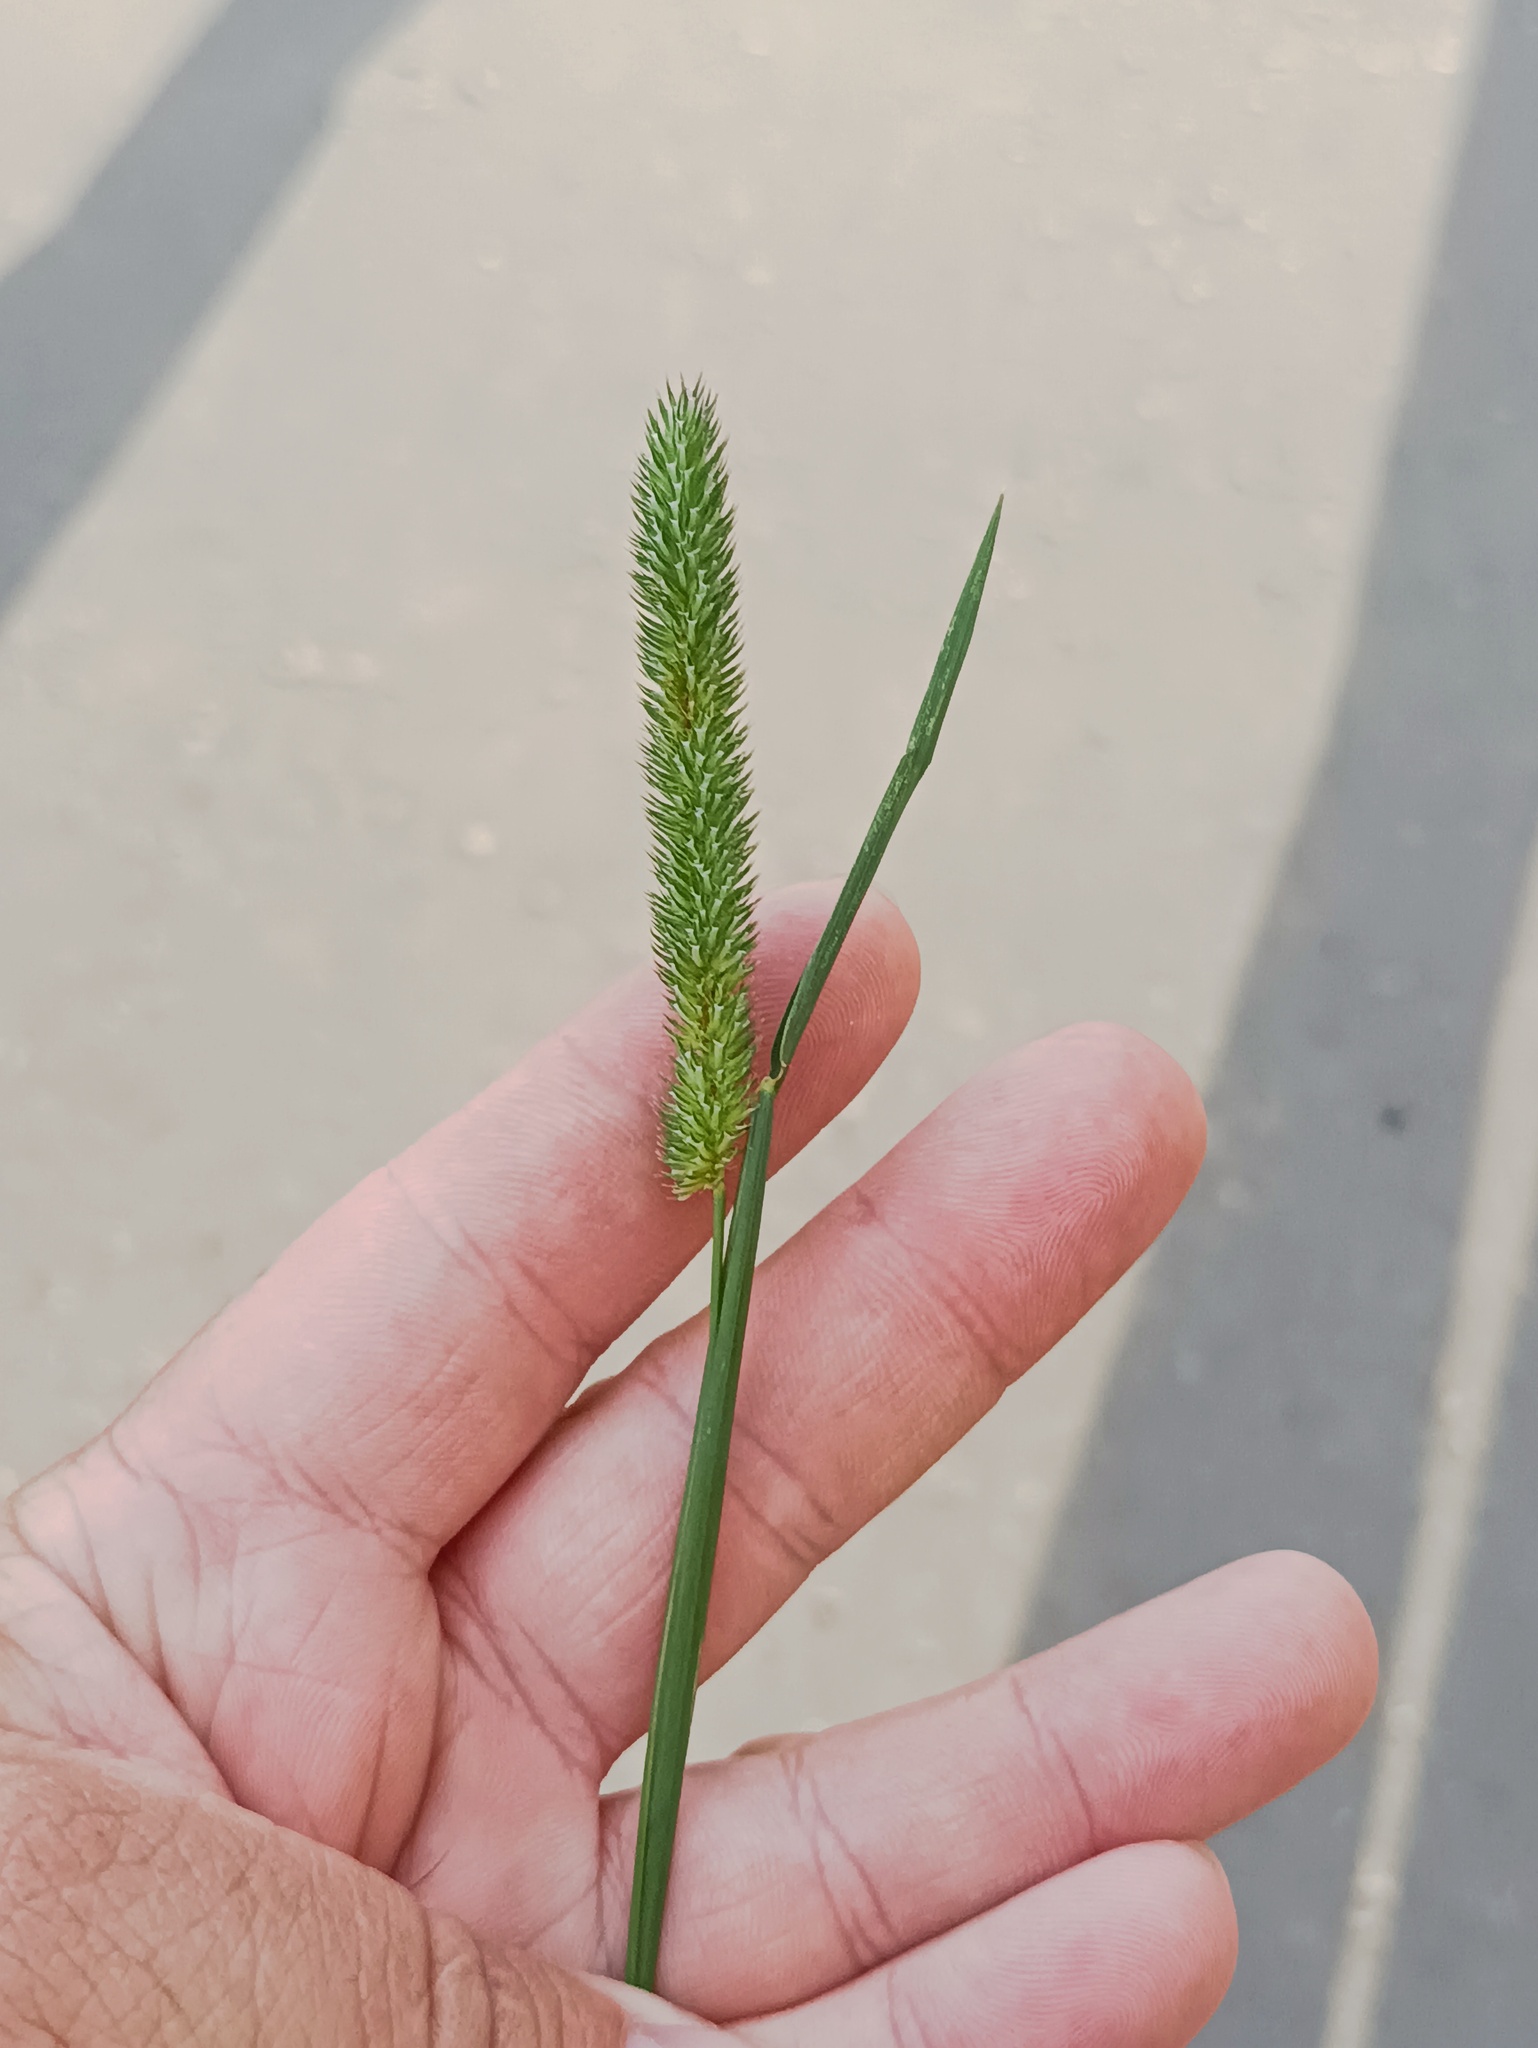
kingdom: Plantae
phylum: Tracheophyta
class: Liliopsida
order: Poales
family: Poaceae
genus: Phleum
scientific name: Phleum pratense
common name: Timothy grass
